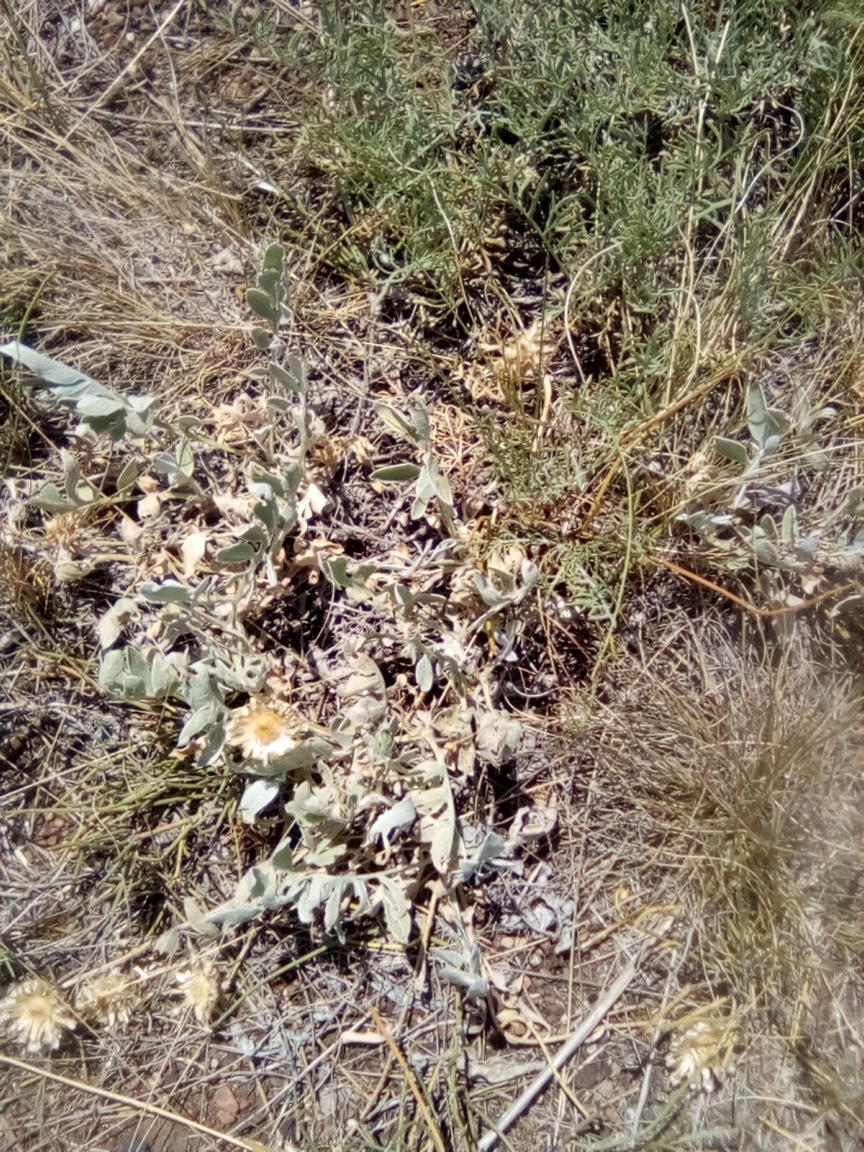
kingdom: Plantae
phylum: Tracheophyta
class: Magnoliopsida
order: Asterales
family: Asteraceae
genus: Psephellus
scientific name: Psephellus marschallianus
